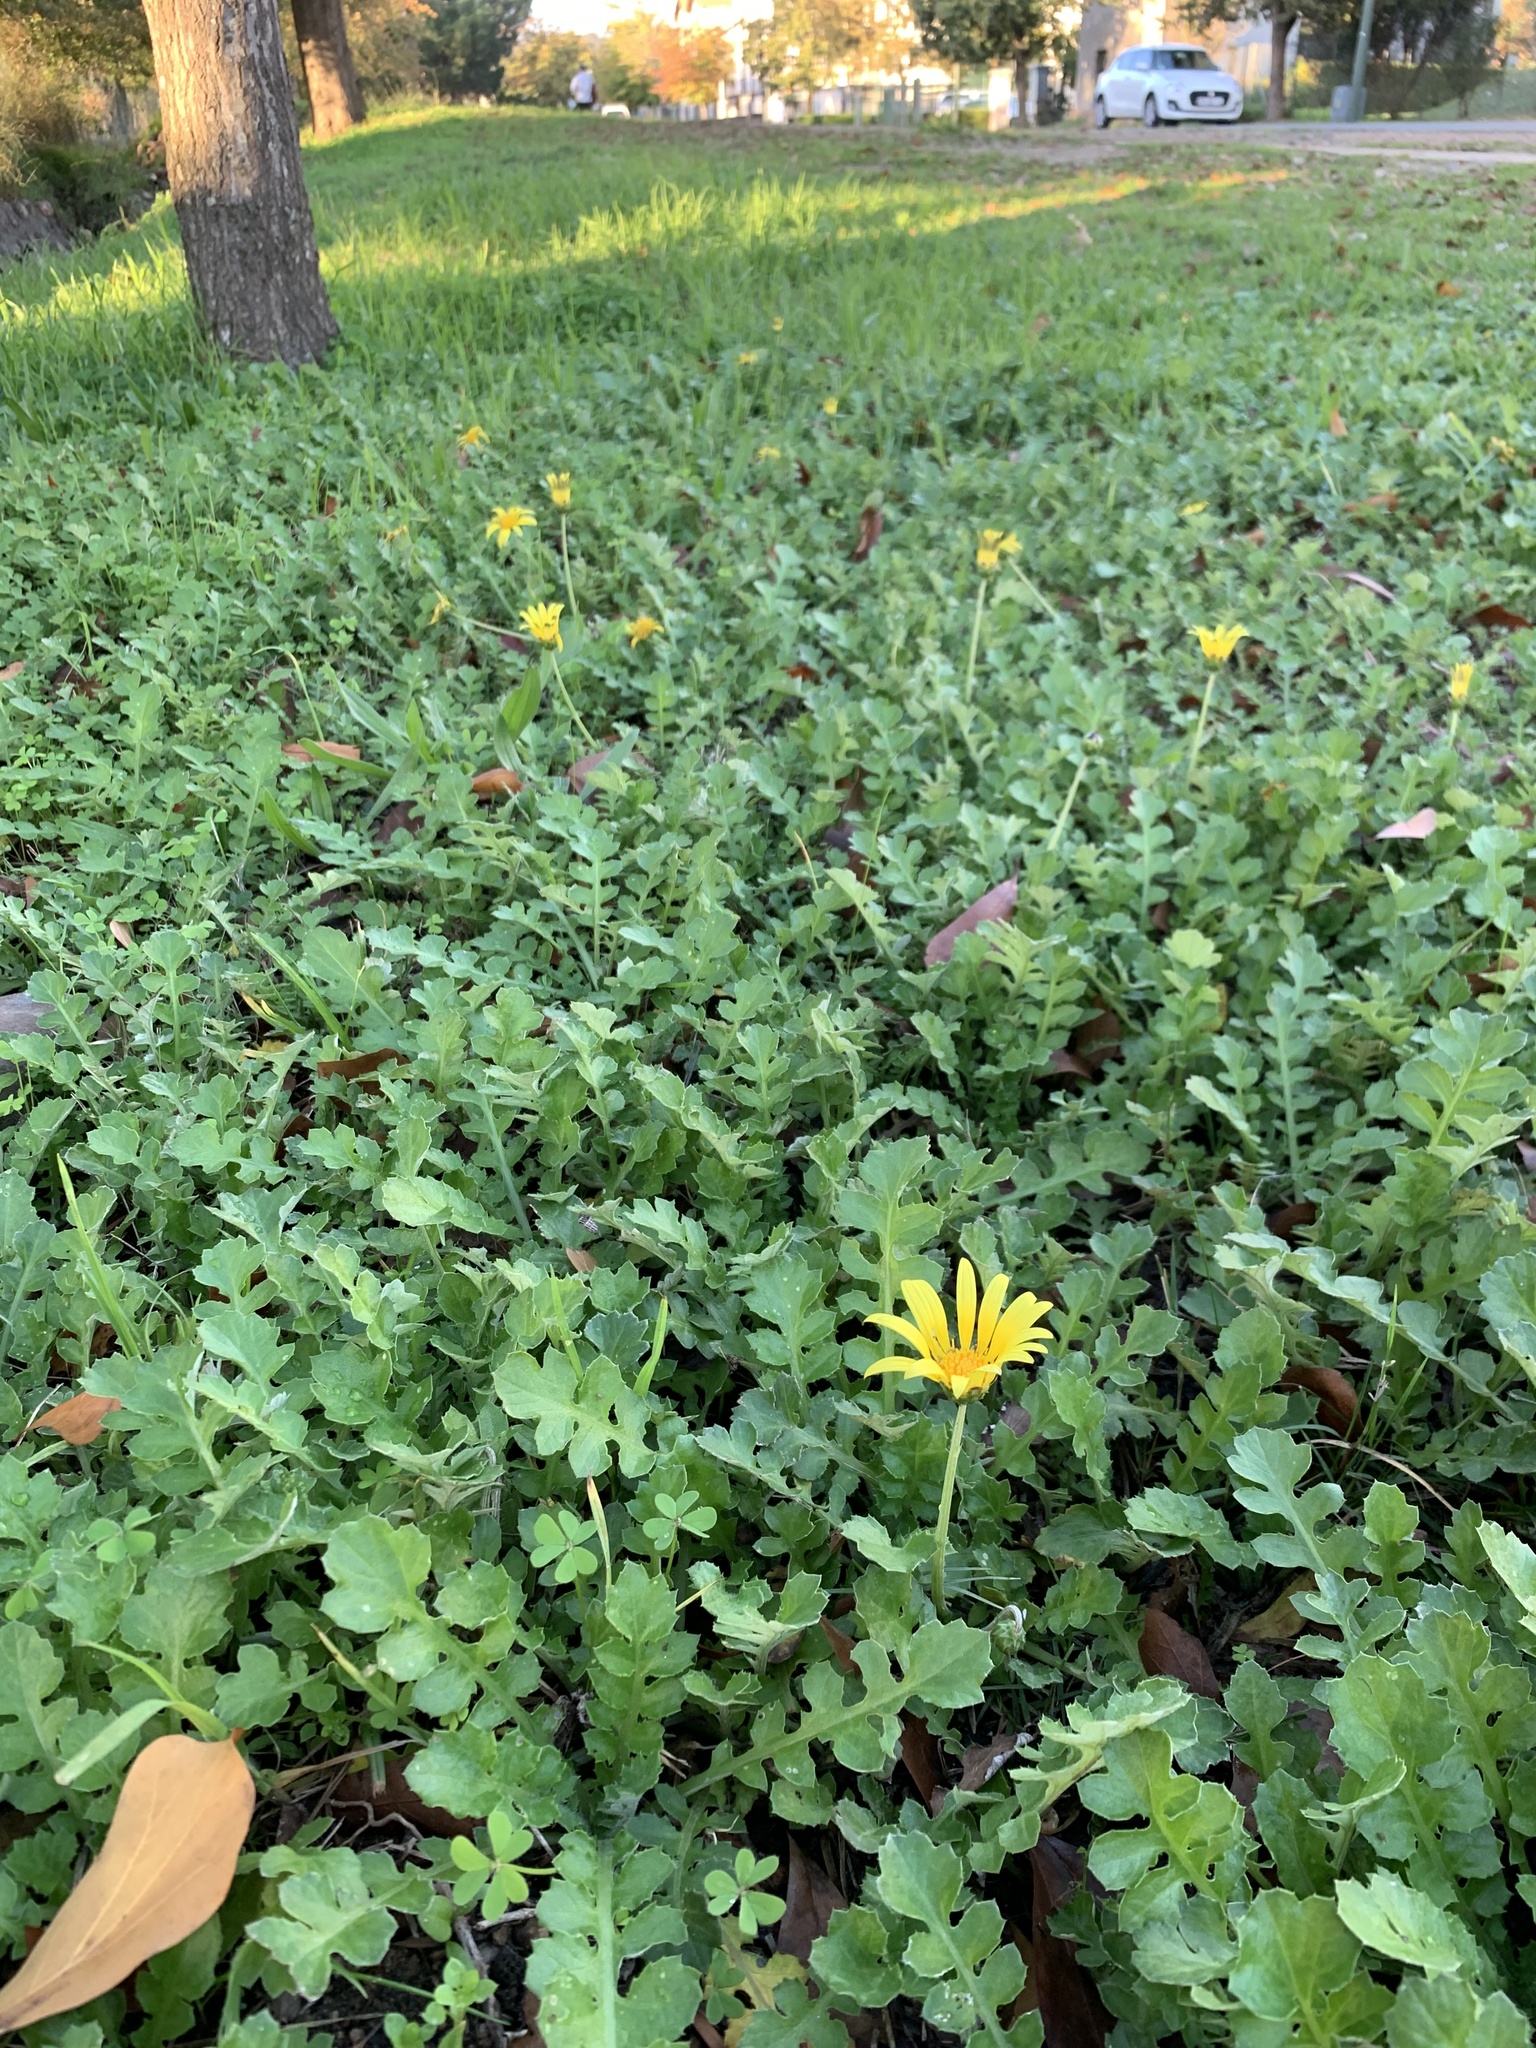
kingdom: Plantae
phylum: Tracheophyta
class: Magnoliopsida
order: Asterales
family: Asteraceae
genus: Arctotheca
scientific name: Arctotheca prostrata
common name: Capeweed
